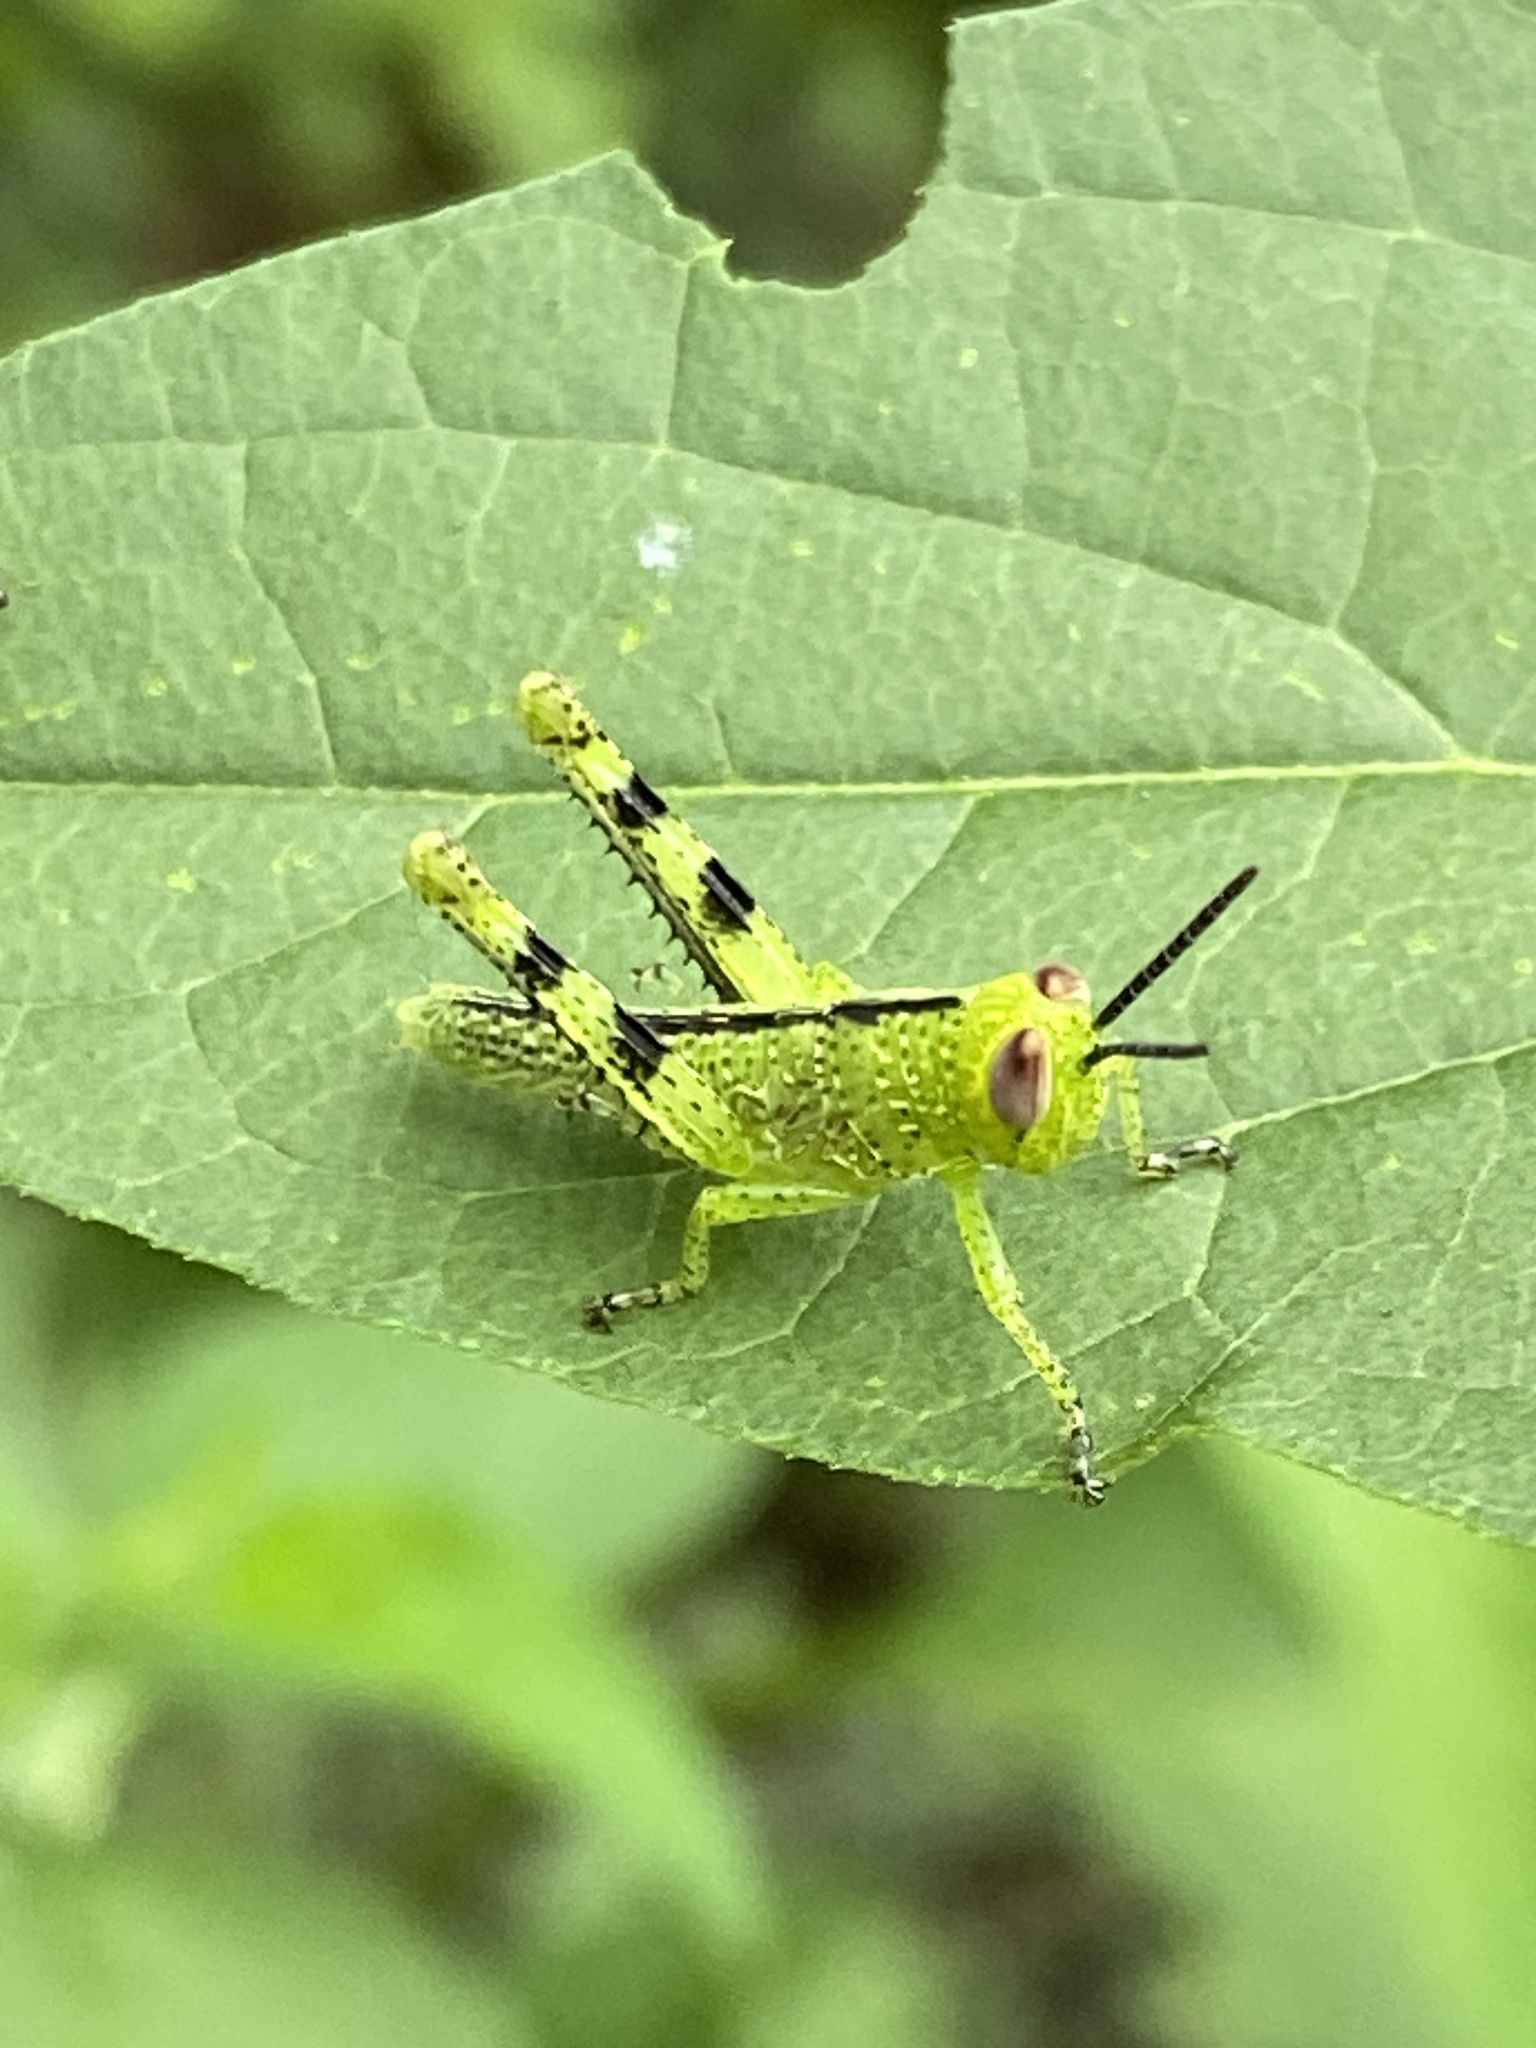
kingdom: Animalia
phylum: Arthropoda
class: Insecta
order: Orthoptera
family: Acrididae
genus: Valanga
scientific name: Valanga irregularis
